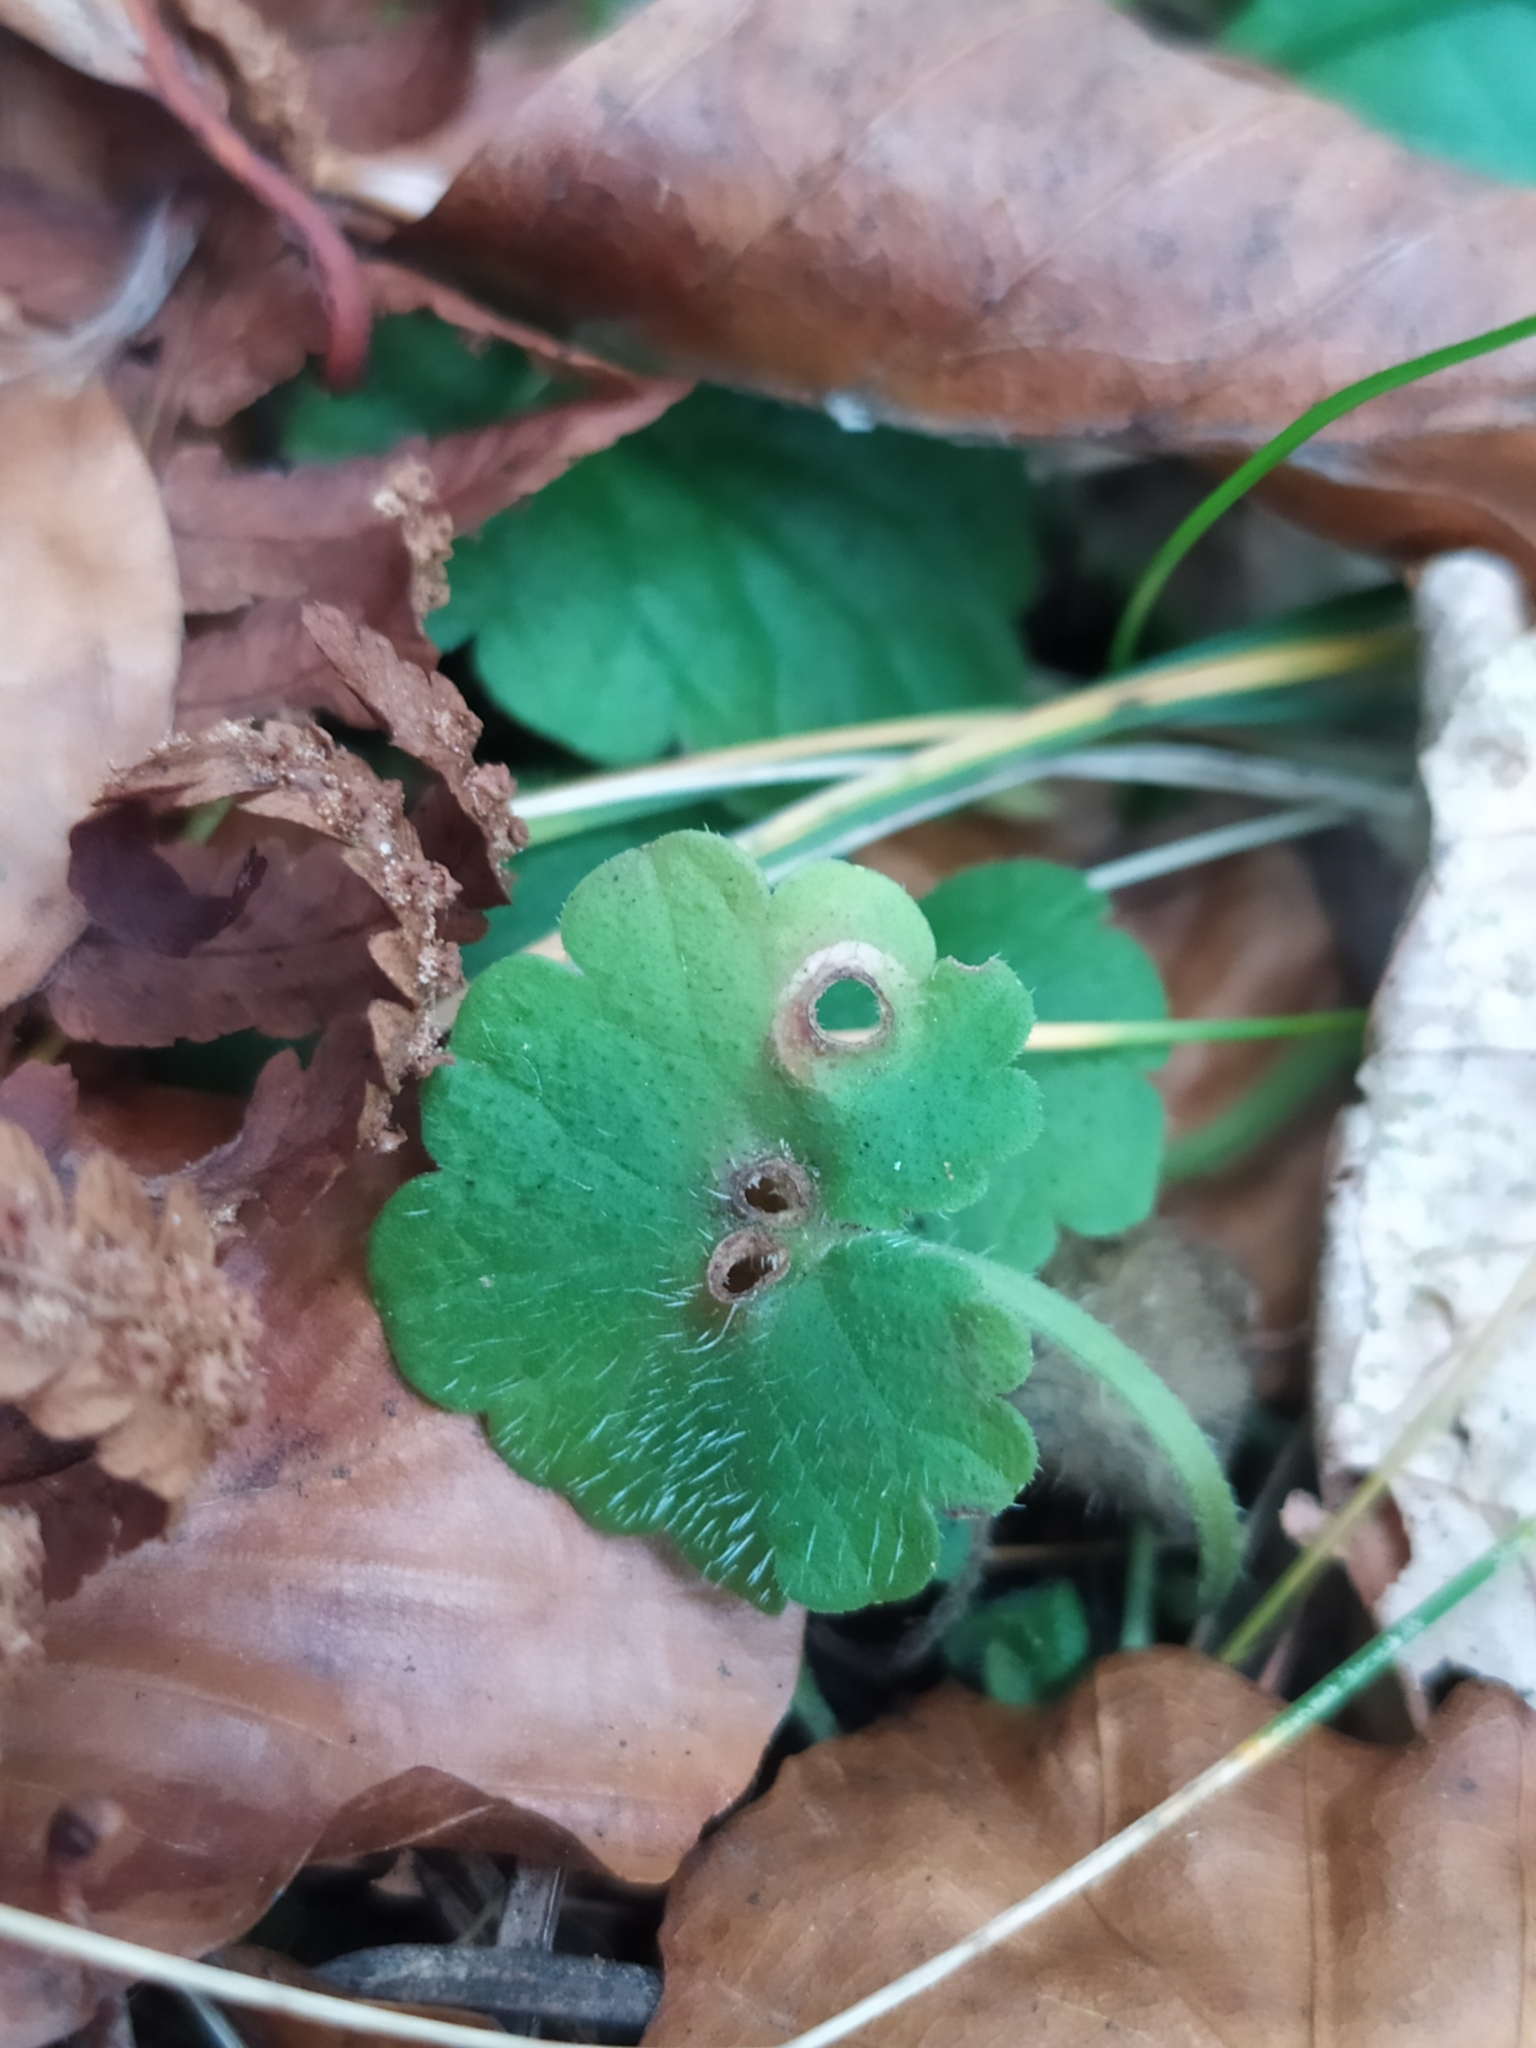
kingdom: Animalia
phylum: Arthropoda
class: Insecta
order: Diptera
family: Cecidomyiidae
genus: Rondaniola
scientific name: Rondaniola bursaria
